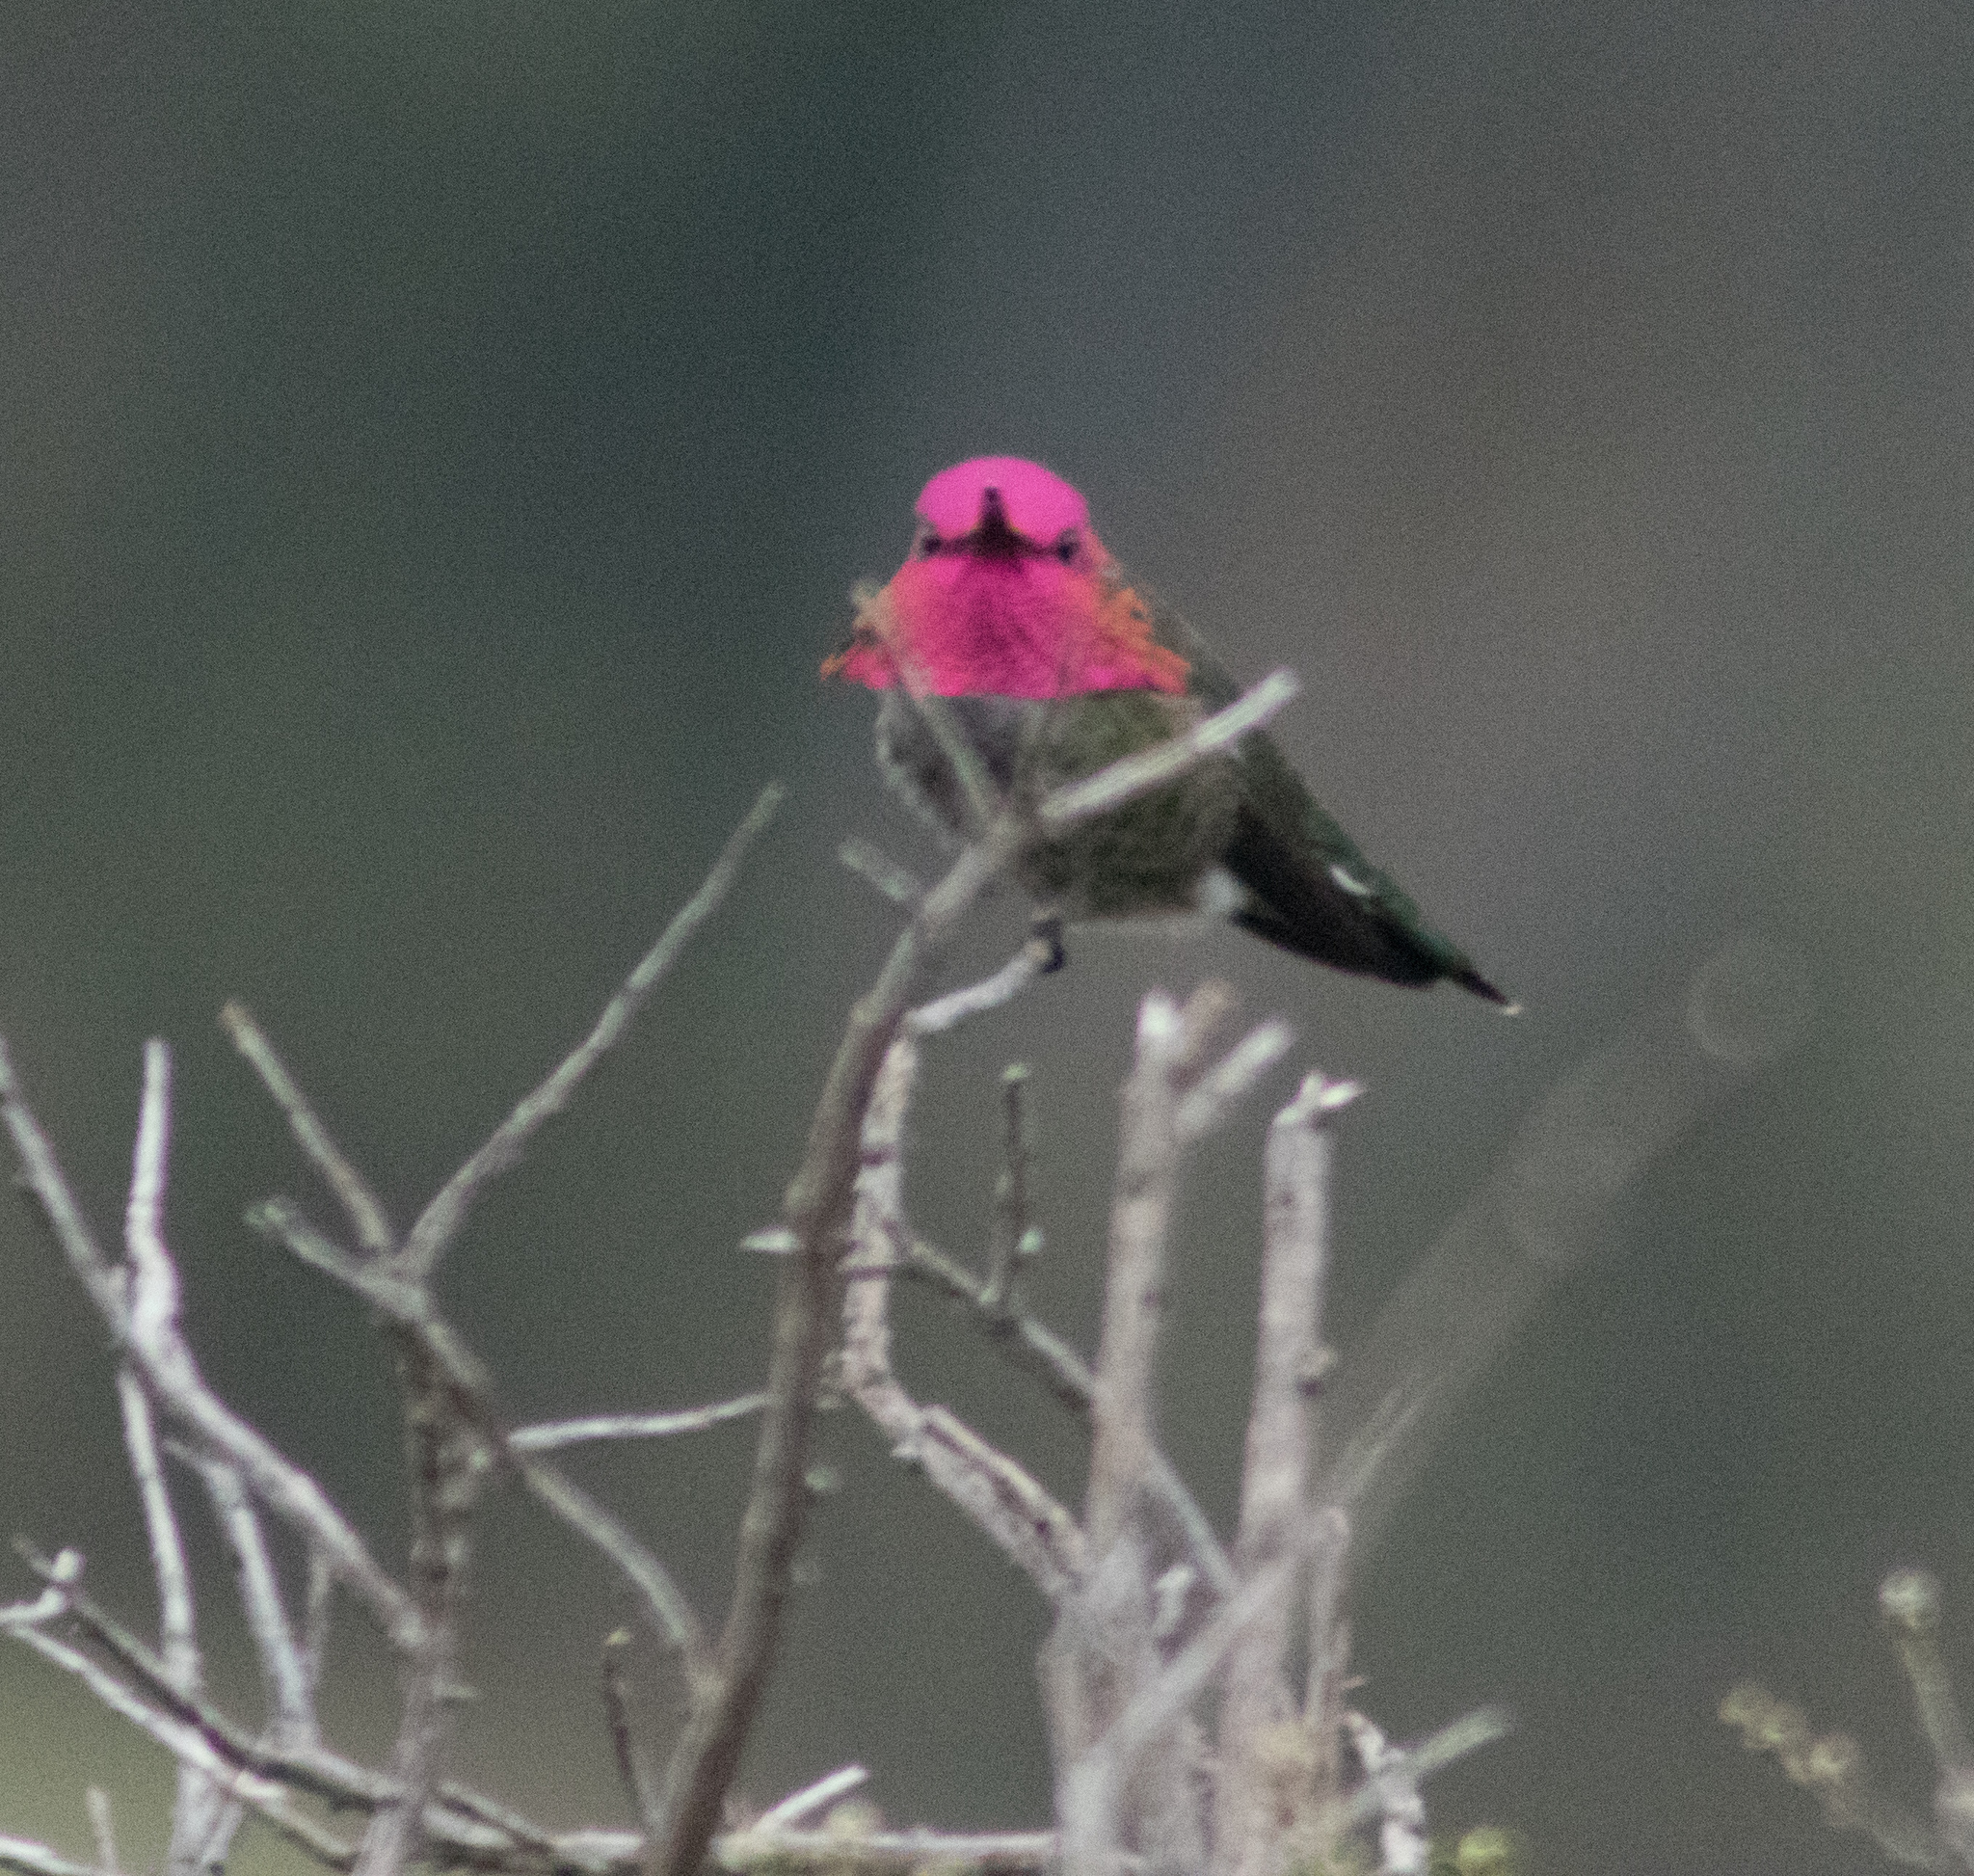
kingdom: Animalia
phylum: Chordata
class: Aves
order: Apodiformes
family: Trochilidae
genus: Calypte
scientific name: Calypte anna
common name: Anna's hummingbird
